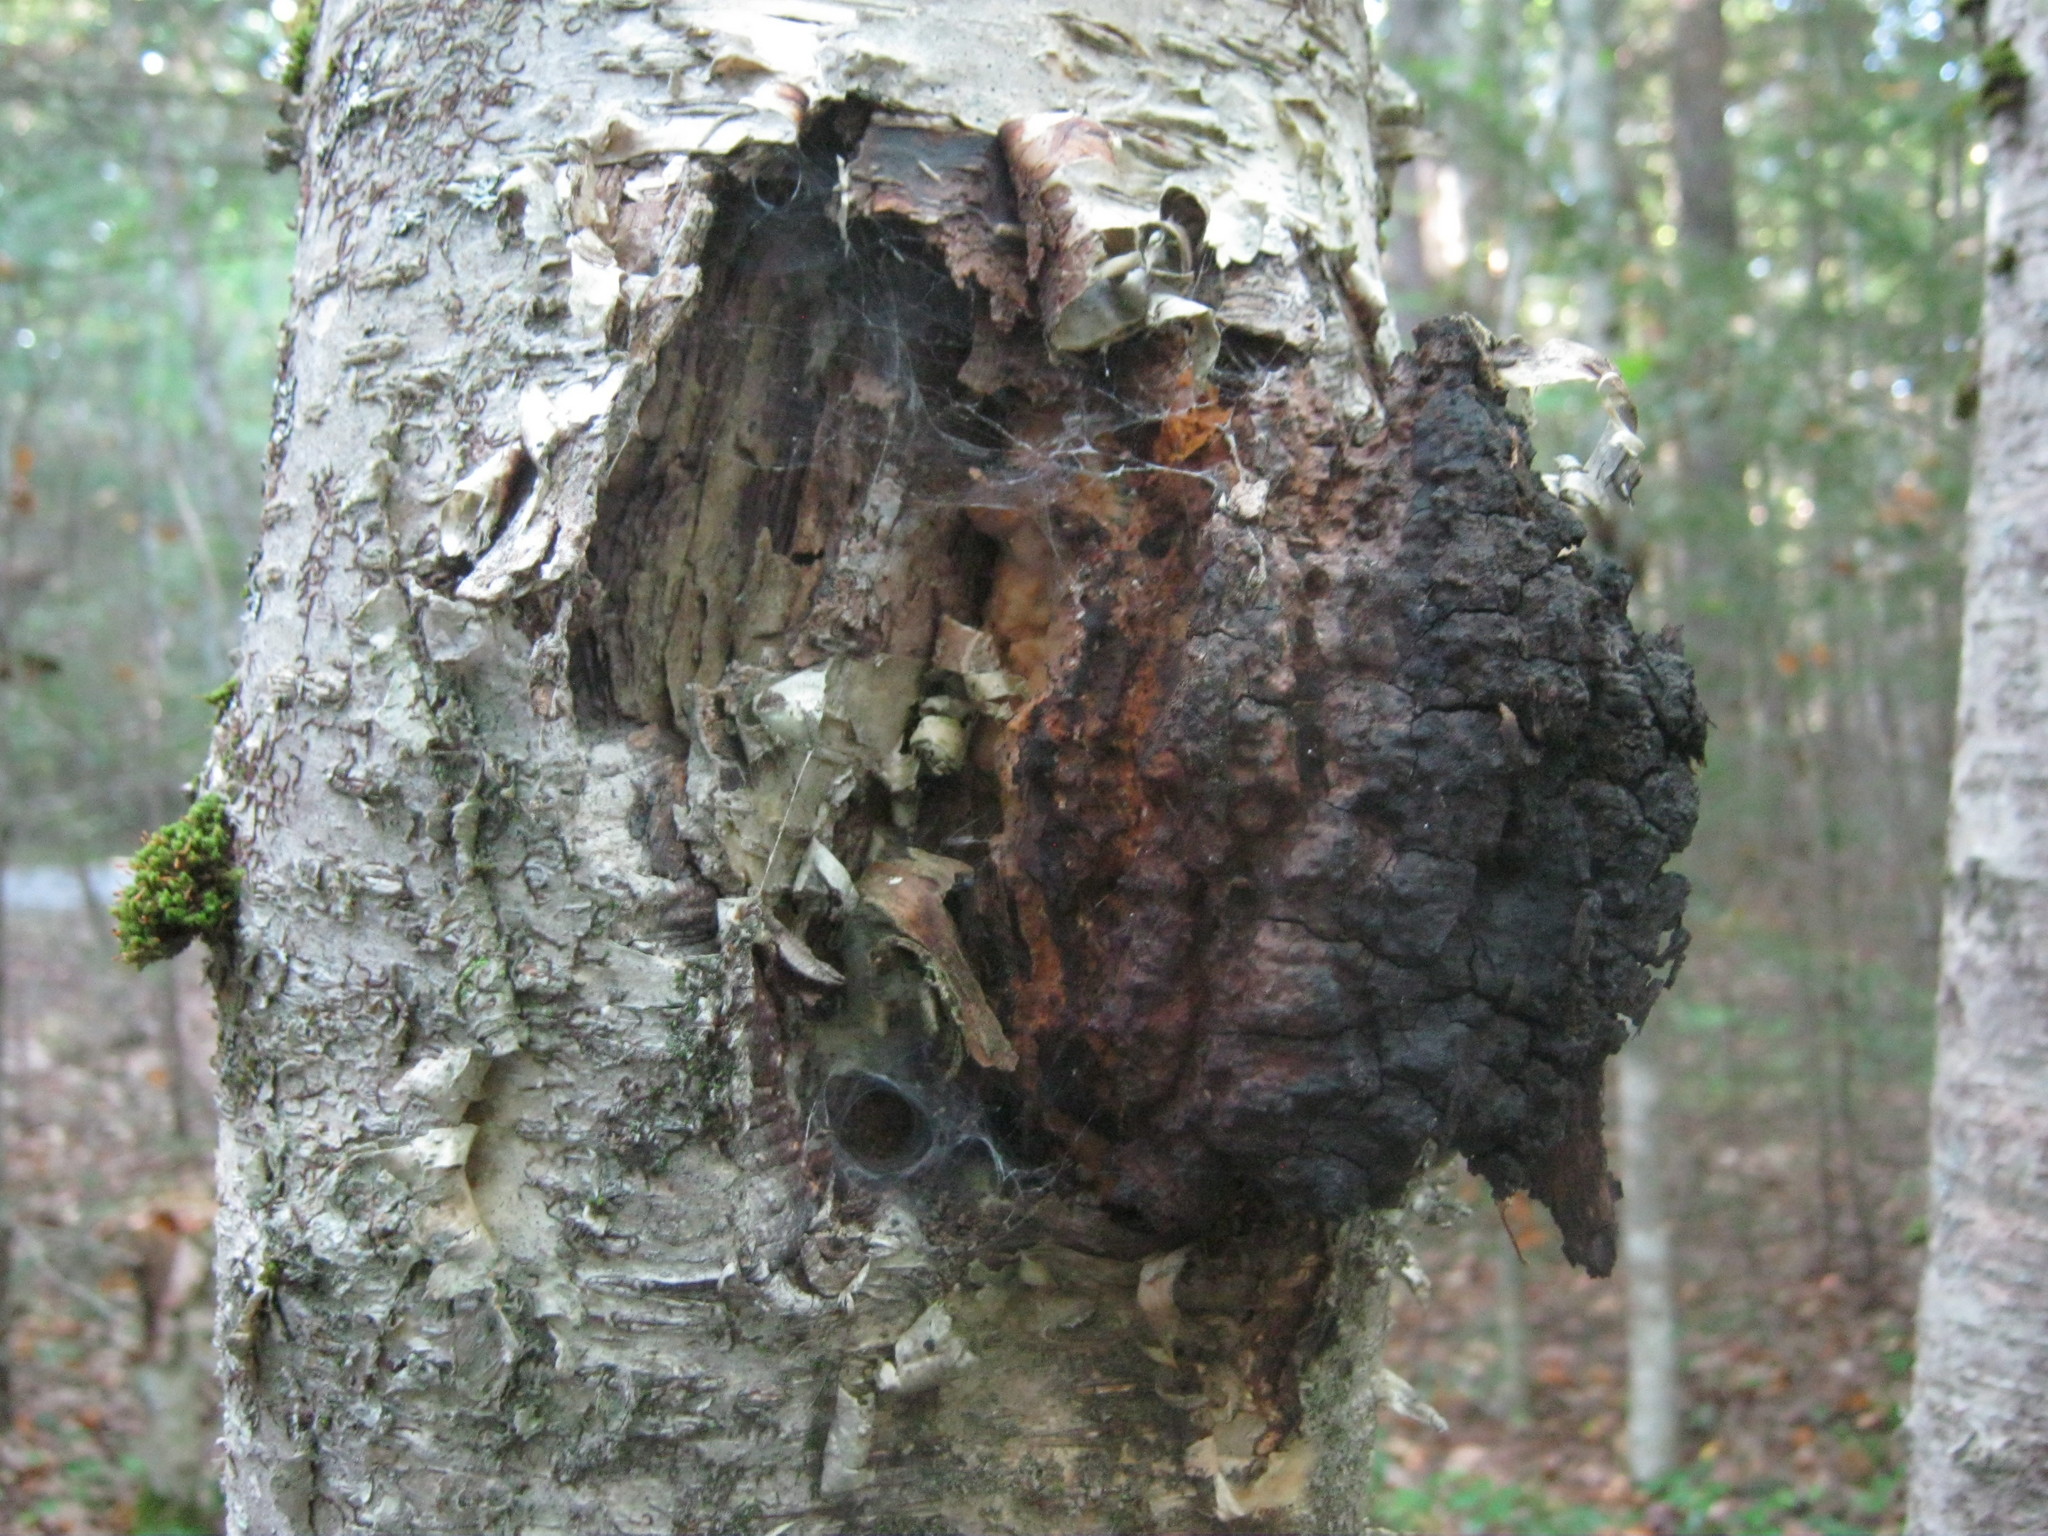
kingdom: Fungi
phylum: Basidiomycota
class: Agaricomycetes
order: Hymenochaetales
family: Hymenochaetaceae
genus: Inonotus
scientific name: Inonotus obliquus
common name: Chaga
